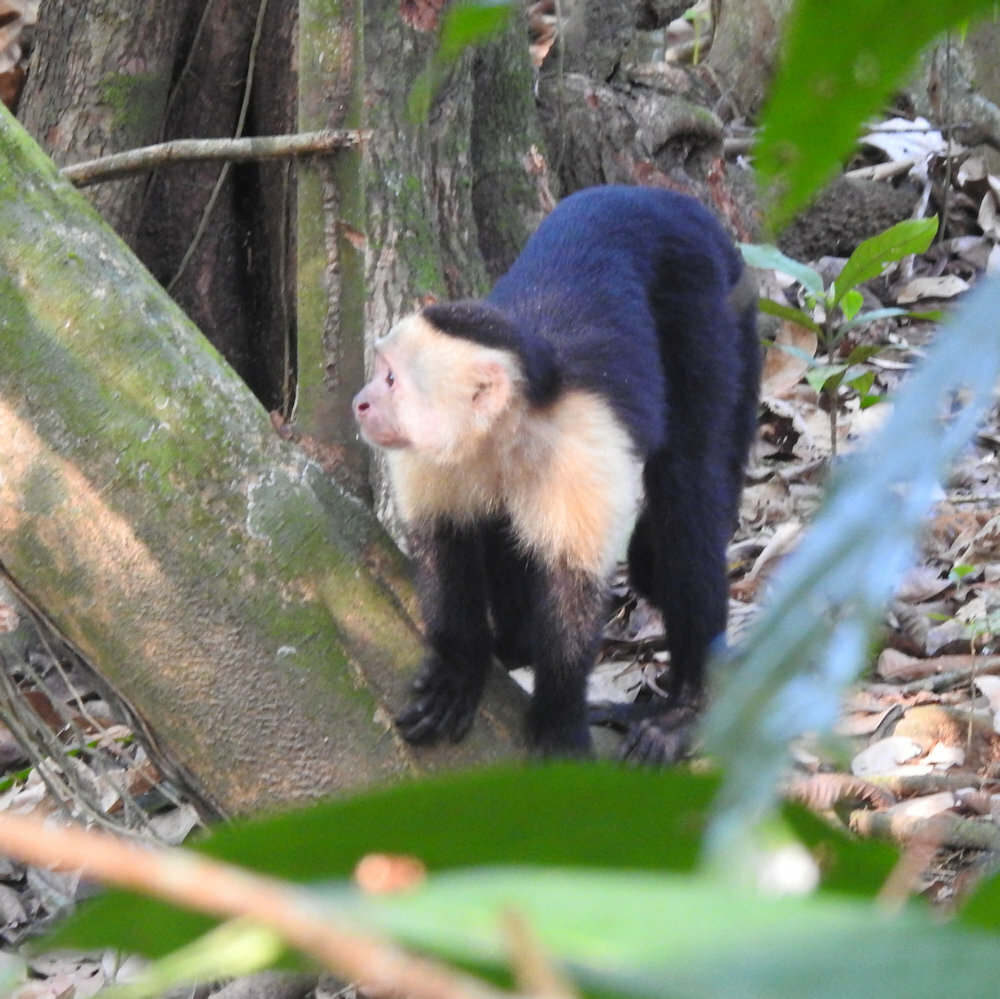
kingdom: Animalia
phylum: Chordata
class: Mammalia
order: Primates
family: Cebidae
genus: Cebus
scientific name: Cebus imitator
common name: Panamanian white-faced capuchin
